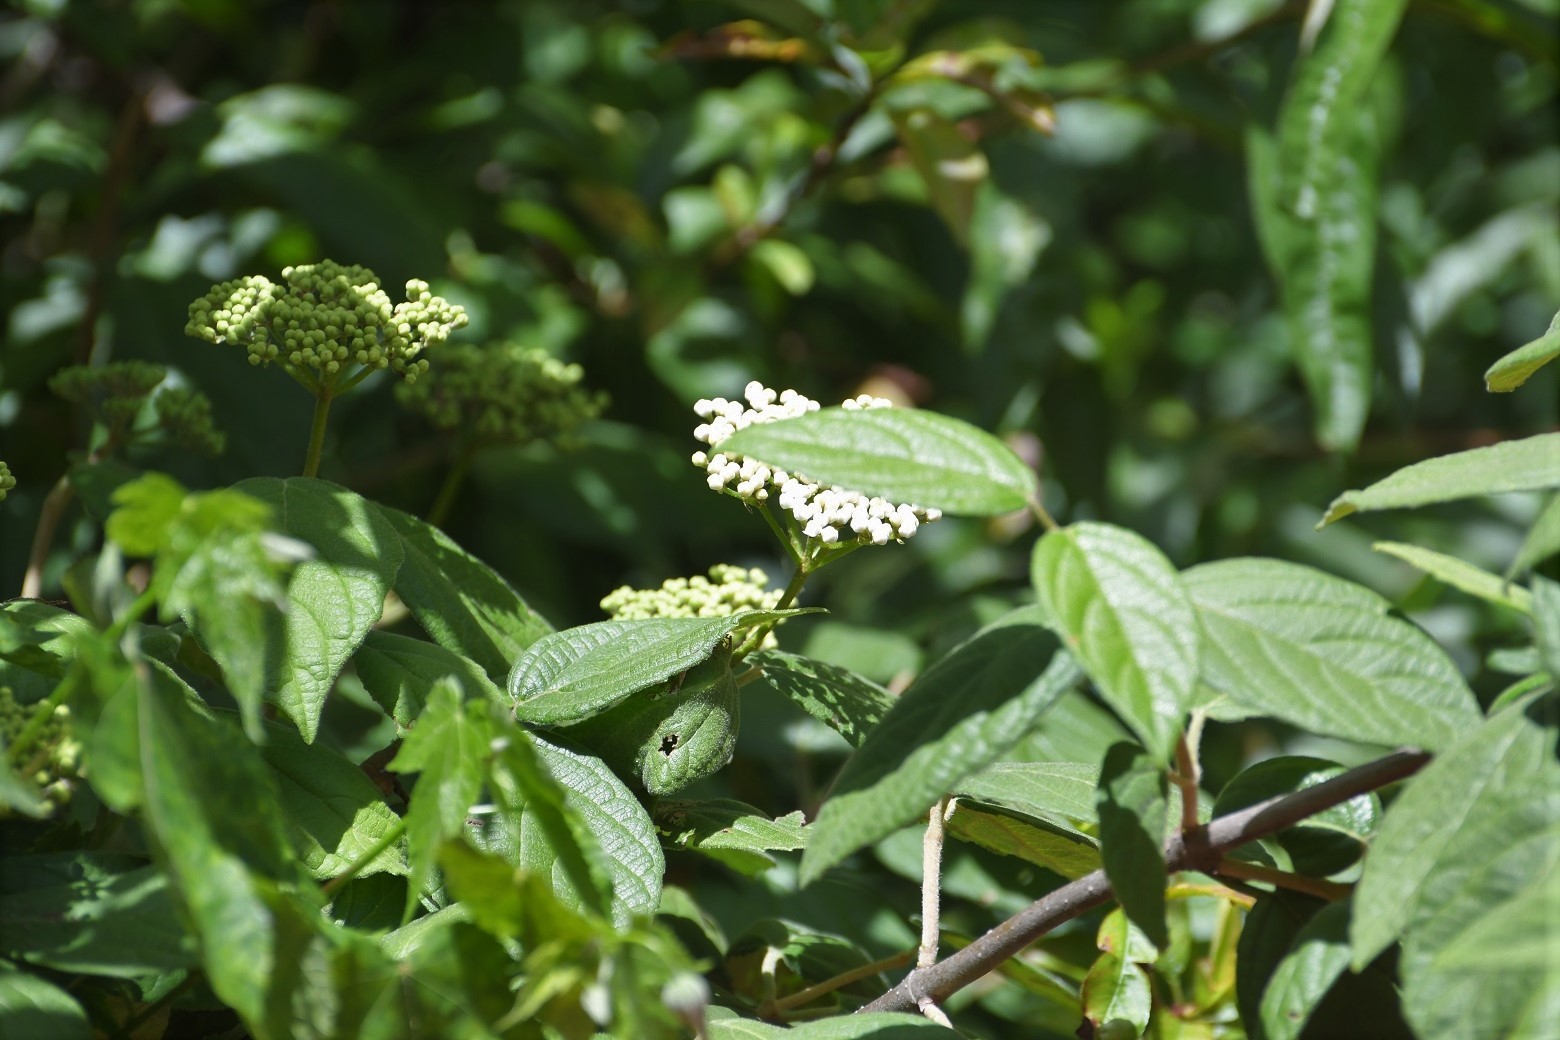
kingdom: Plantae
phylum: Tracheophyta
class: Magnoliopsida
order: Dipsacales
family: Viburnaceae
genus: Viburnum
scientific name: Viburnum jucundum
